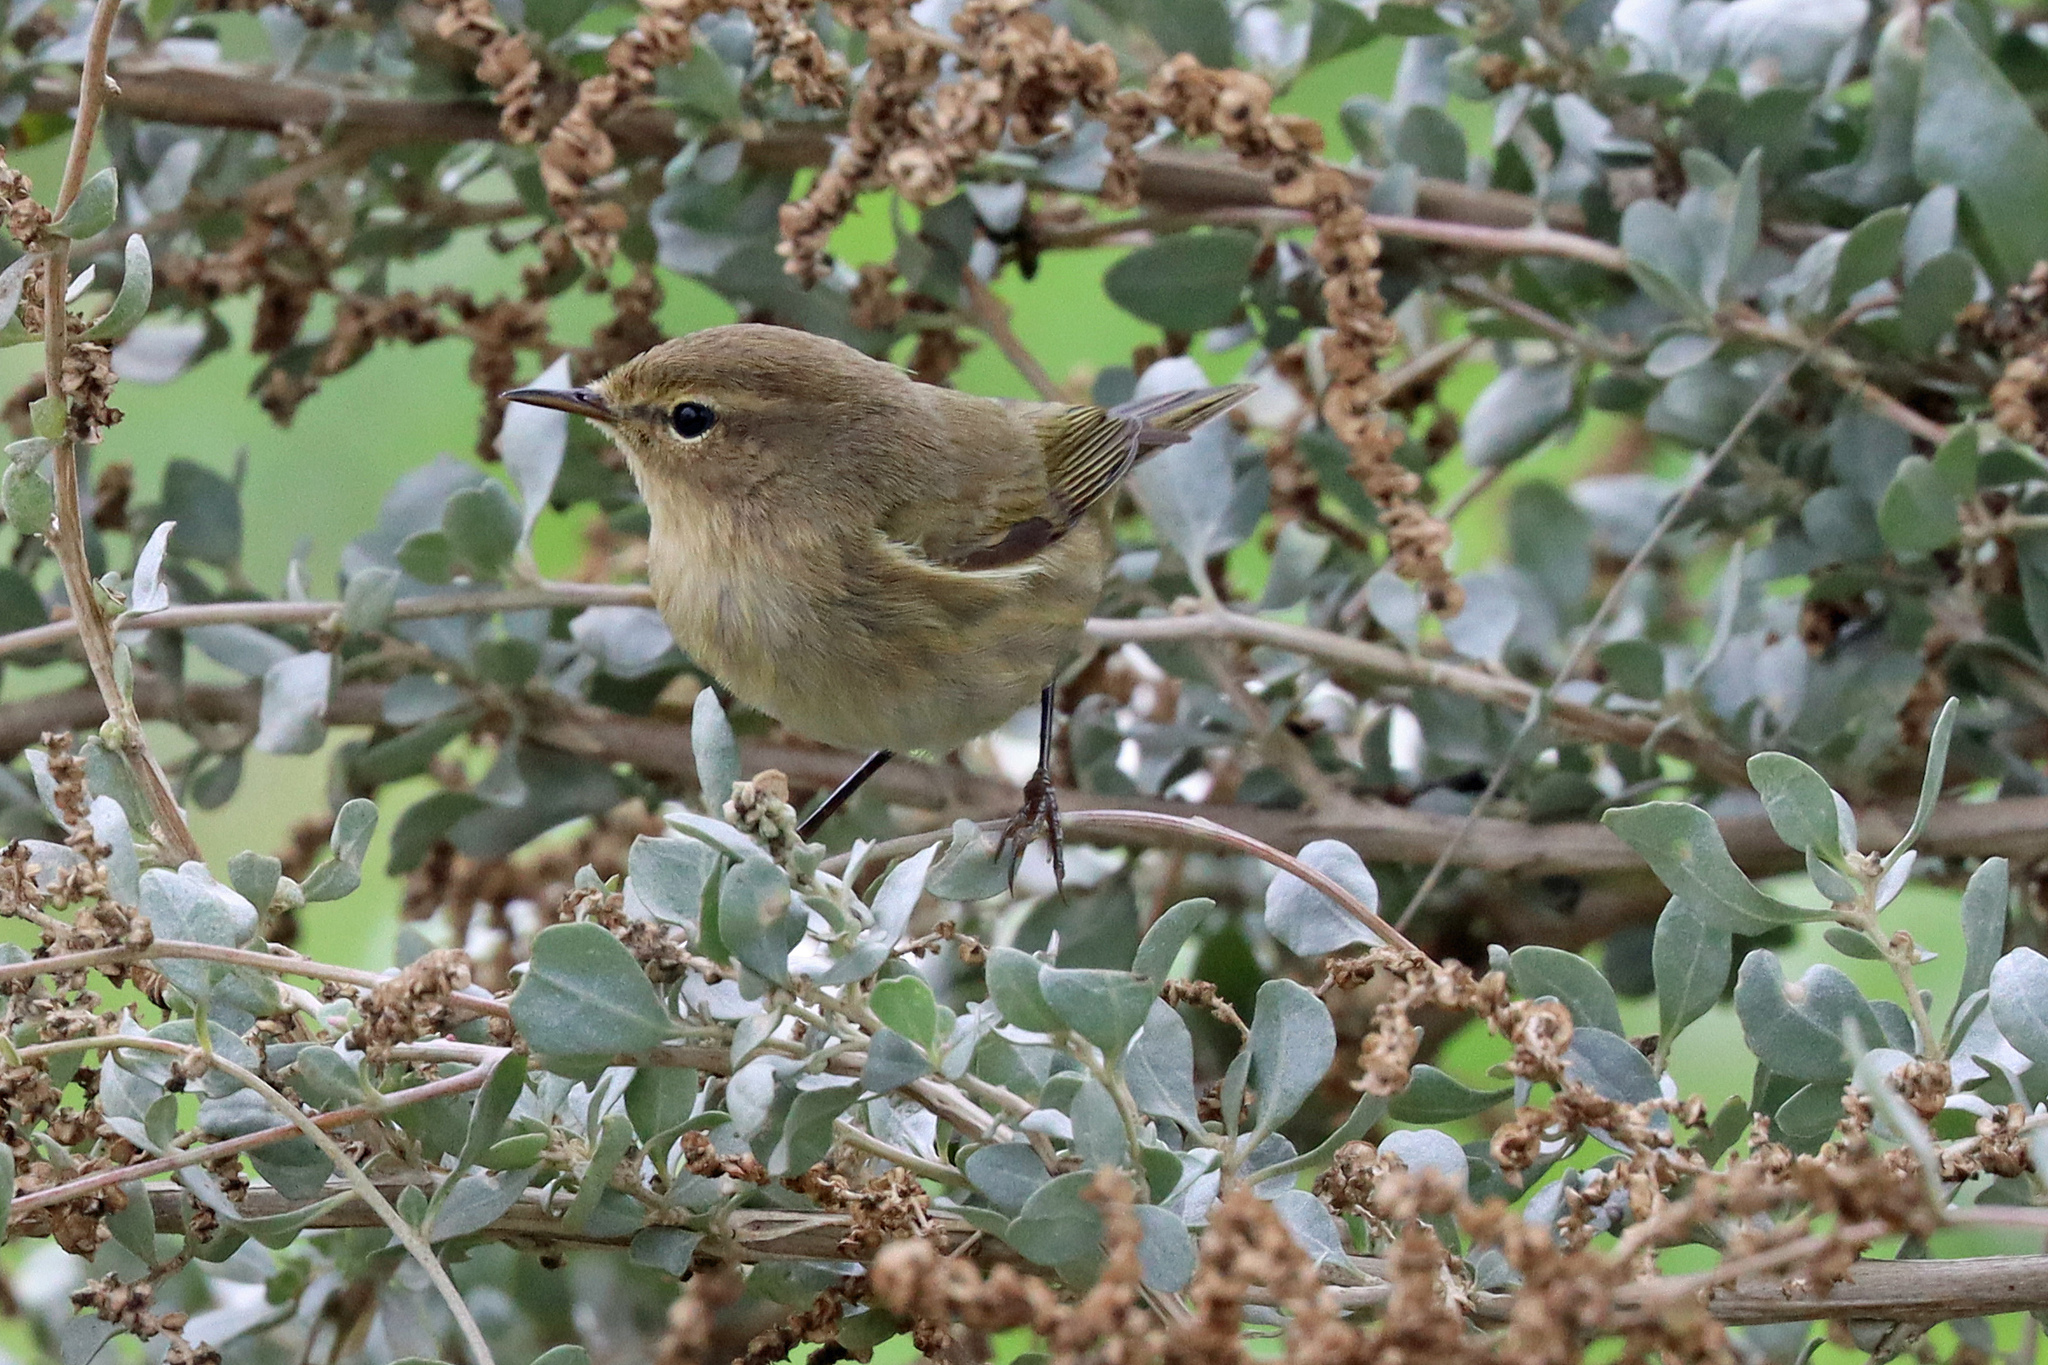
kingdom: Animalia
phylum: Chordata
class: Aves
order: Passeriformes
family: Phylloscopidae
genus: Phylloscopus
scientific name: Phylloscopus collybita
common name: Common chiffchaff
